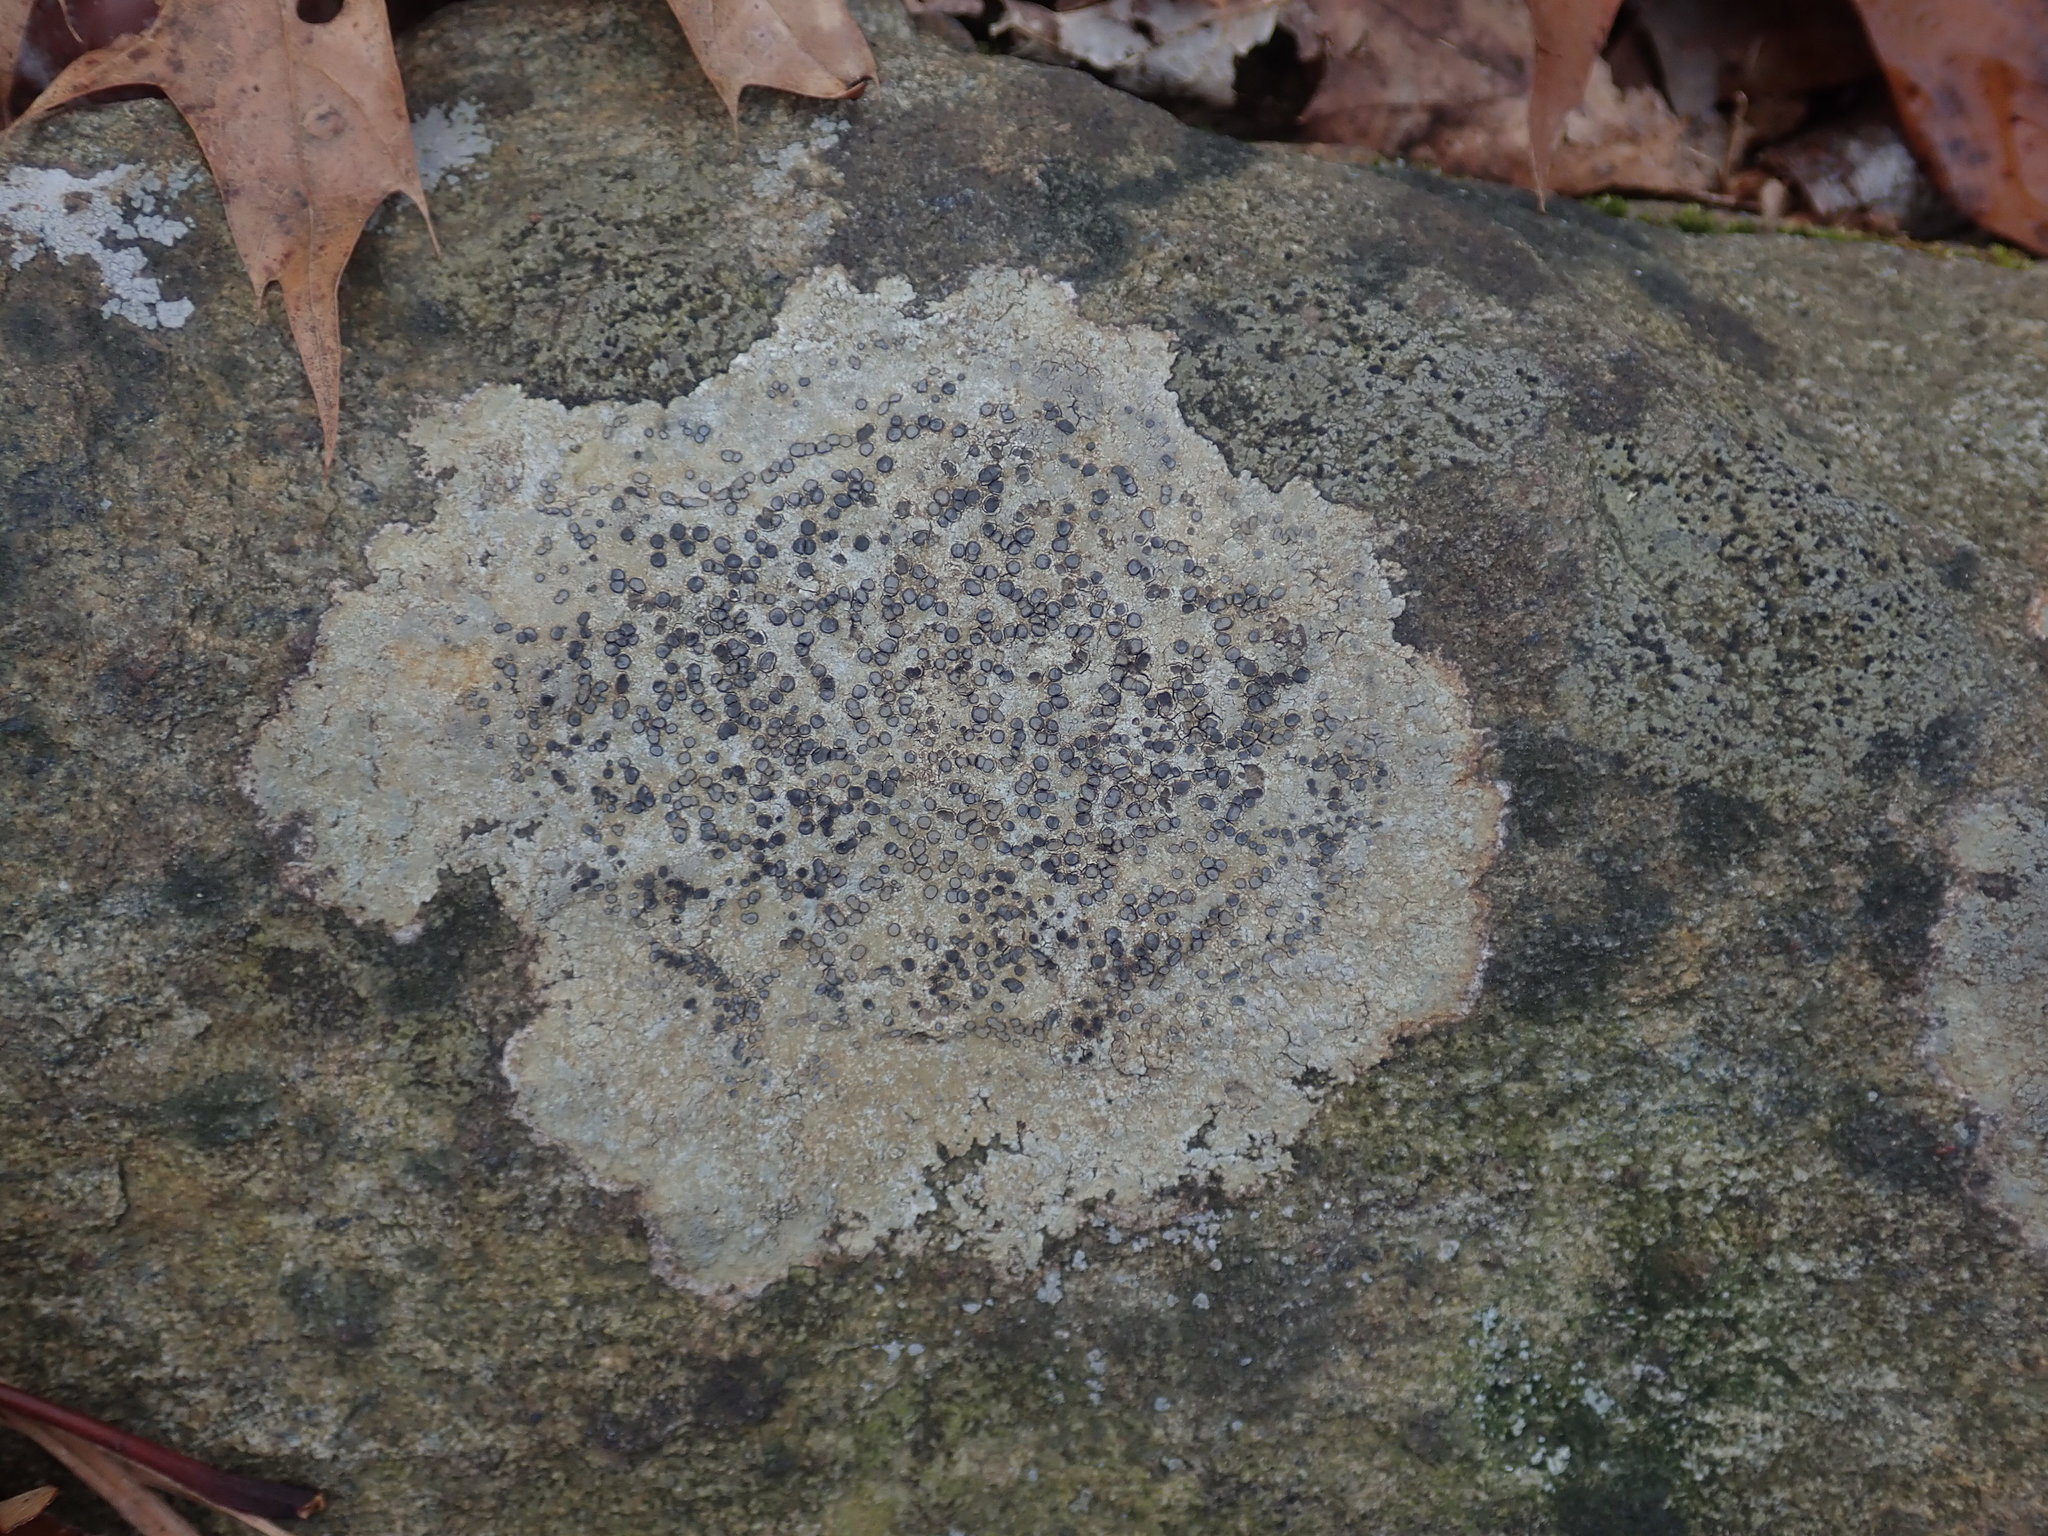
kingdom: Fungi
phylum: Ascomycota
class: Lecanoromycetes
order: Lecideales
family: Lecideaceae
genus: Porpidia
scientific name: Porpidia albocaerulescens
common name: Smokey-eyed boulder lichen
